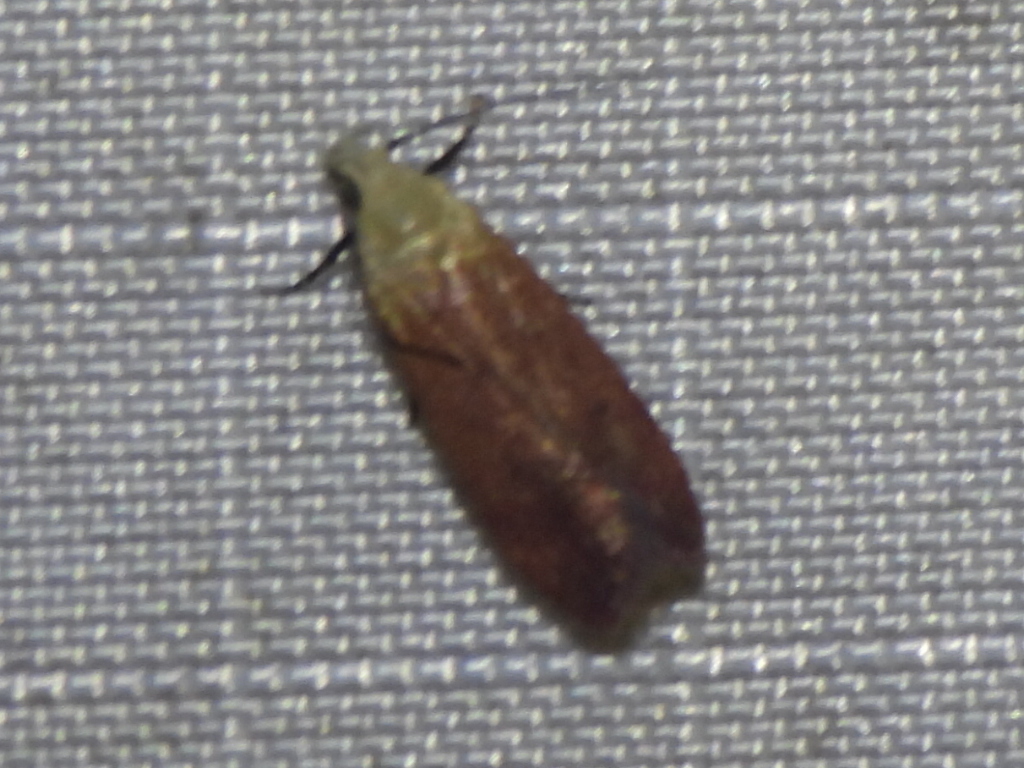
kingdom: Animalia
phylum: Arthropoda
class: Insecta
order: Lepidoptera
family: Gelechiidae
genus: Anacampsis
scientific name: Anacampsis fullonella
